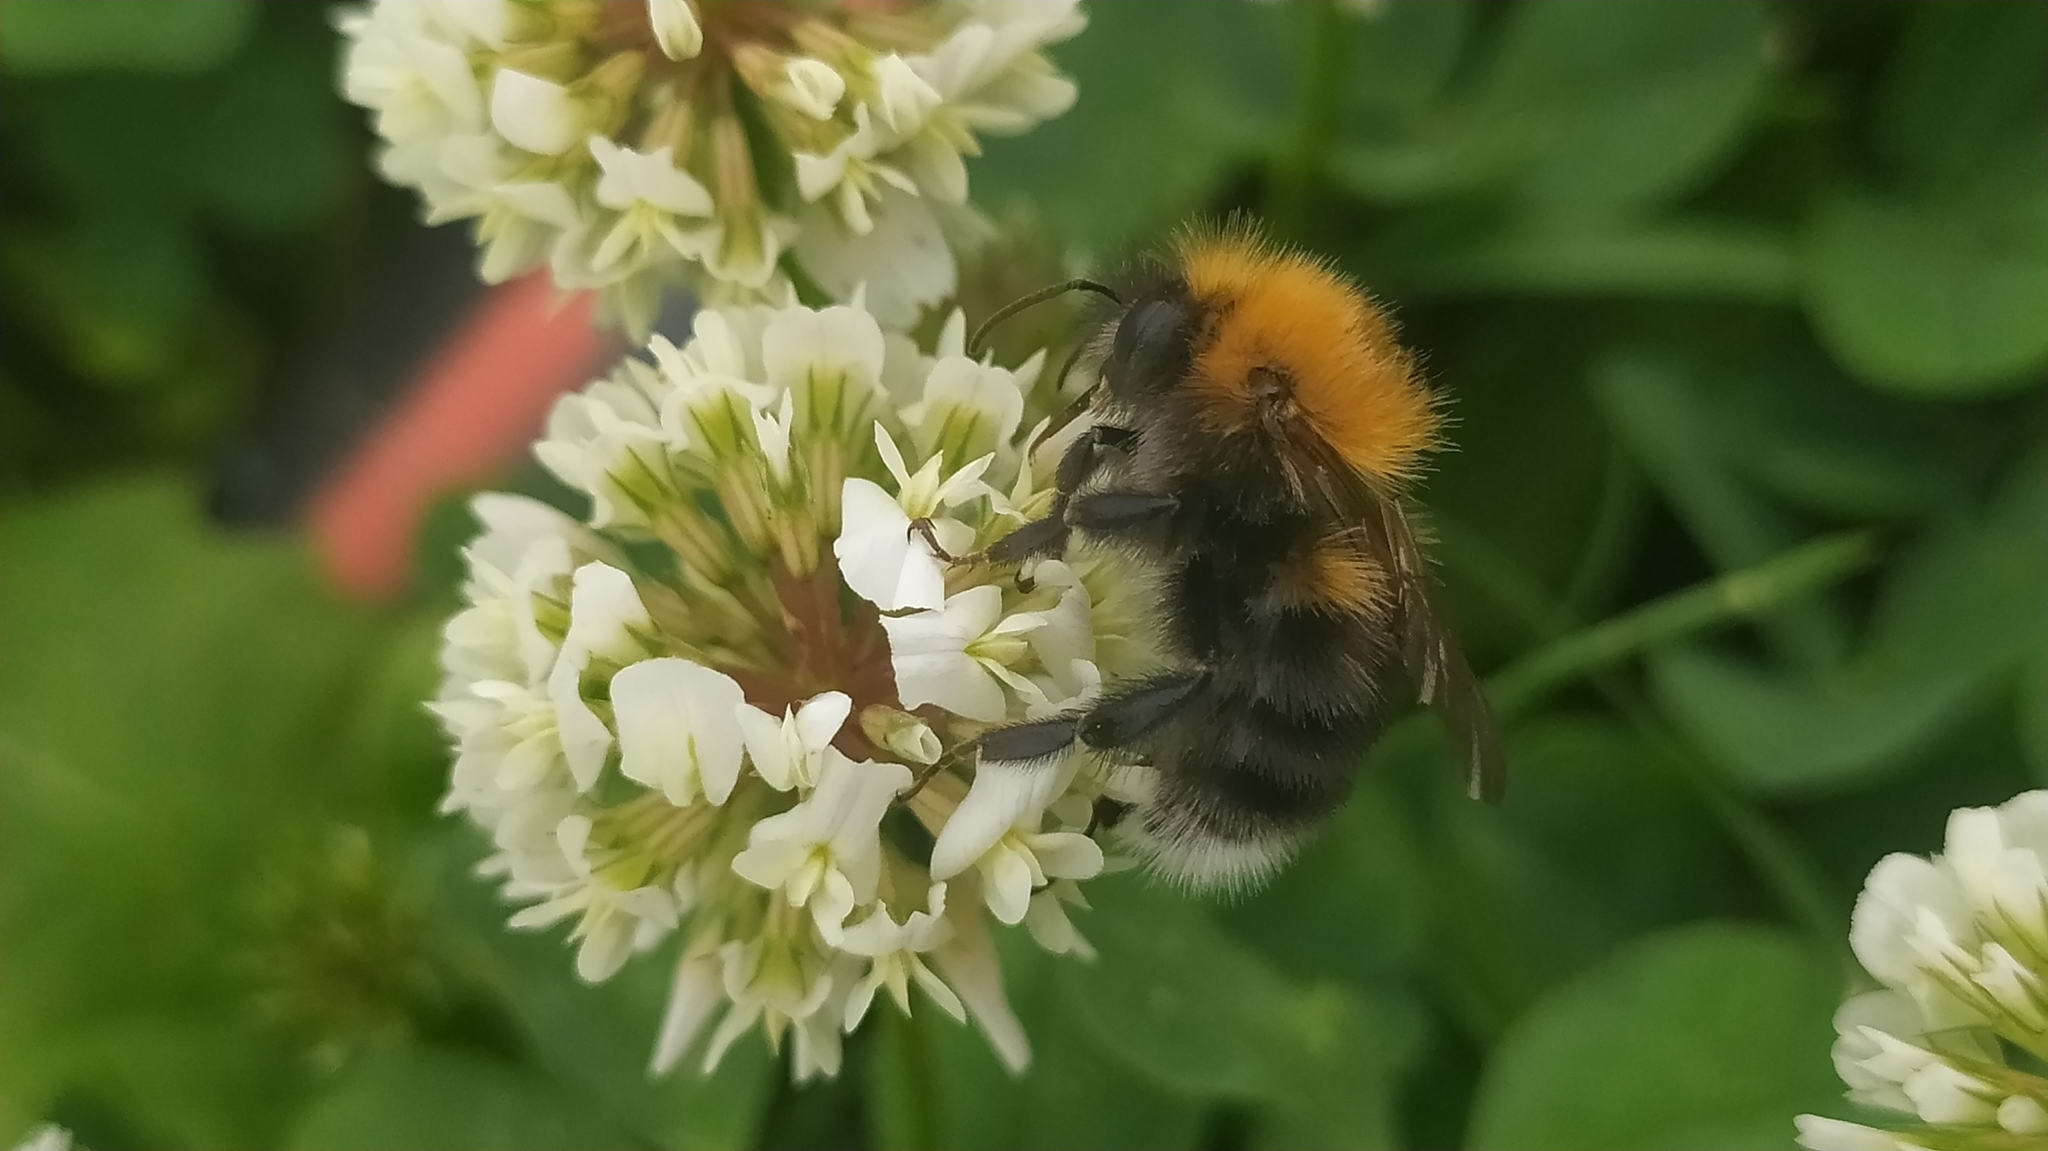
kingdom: Animalia
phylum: Arthropoda
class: Insecta
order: Hymenoptera
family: Apidae
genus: Bombus
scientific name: Bombus hypnorum
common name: New garden bumblebee
